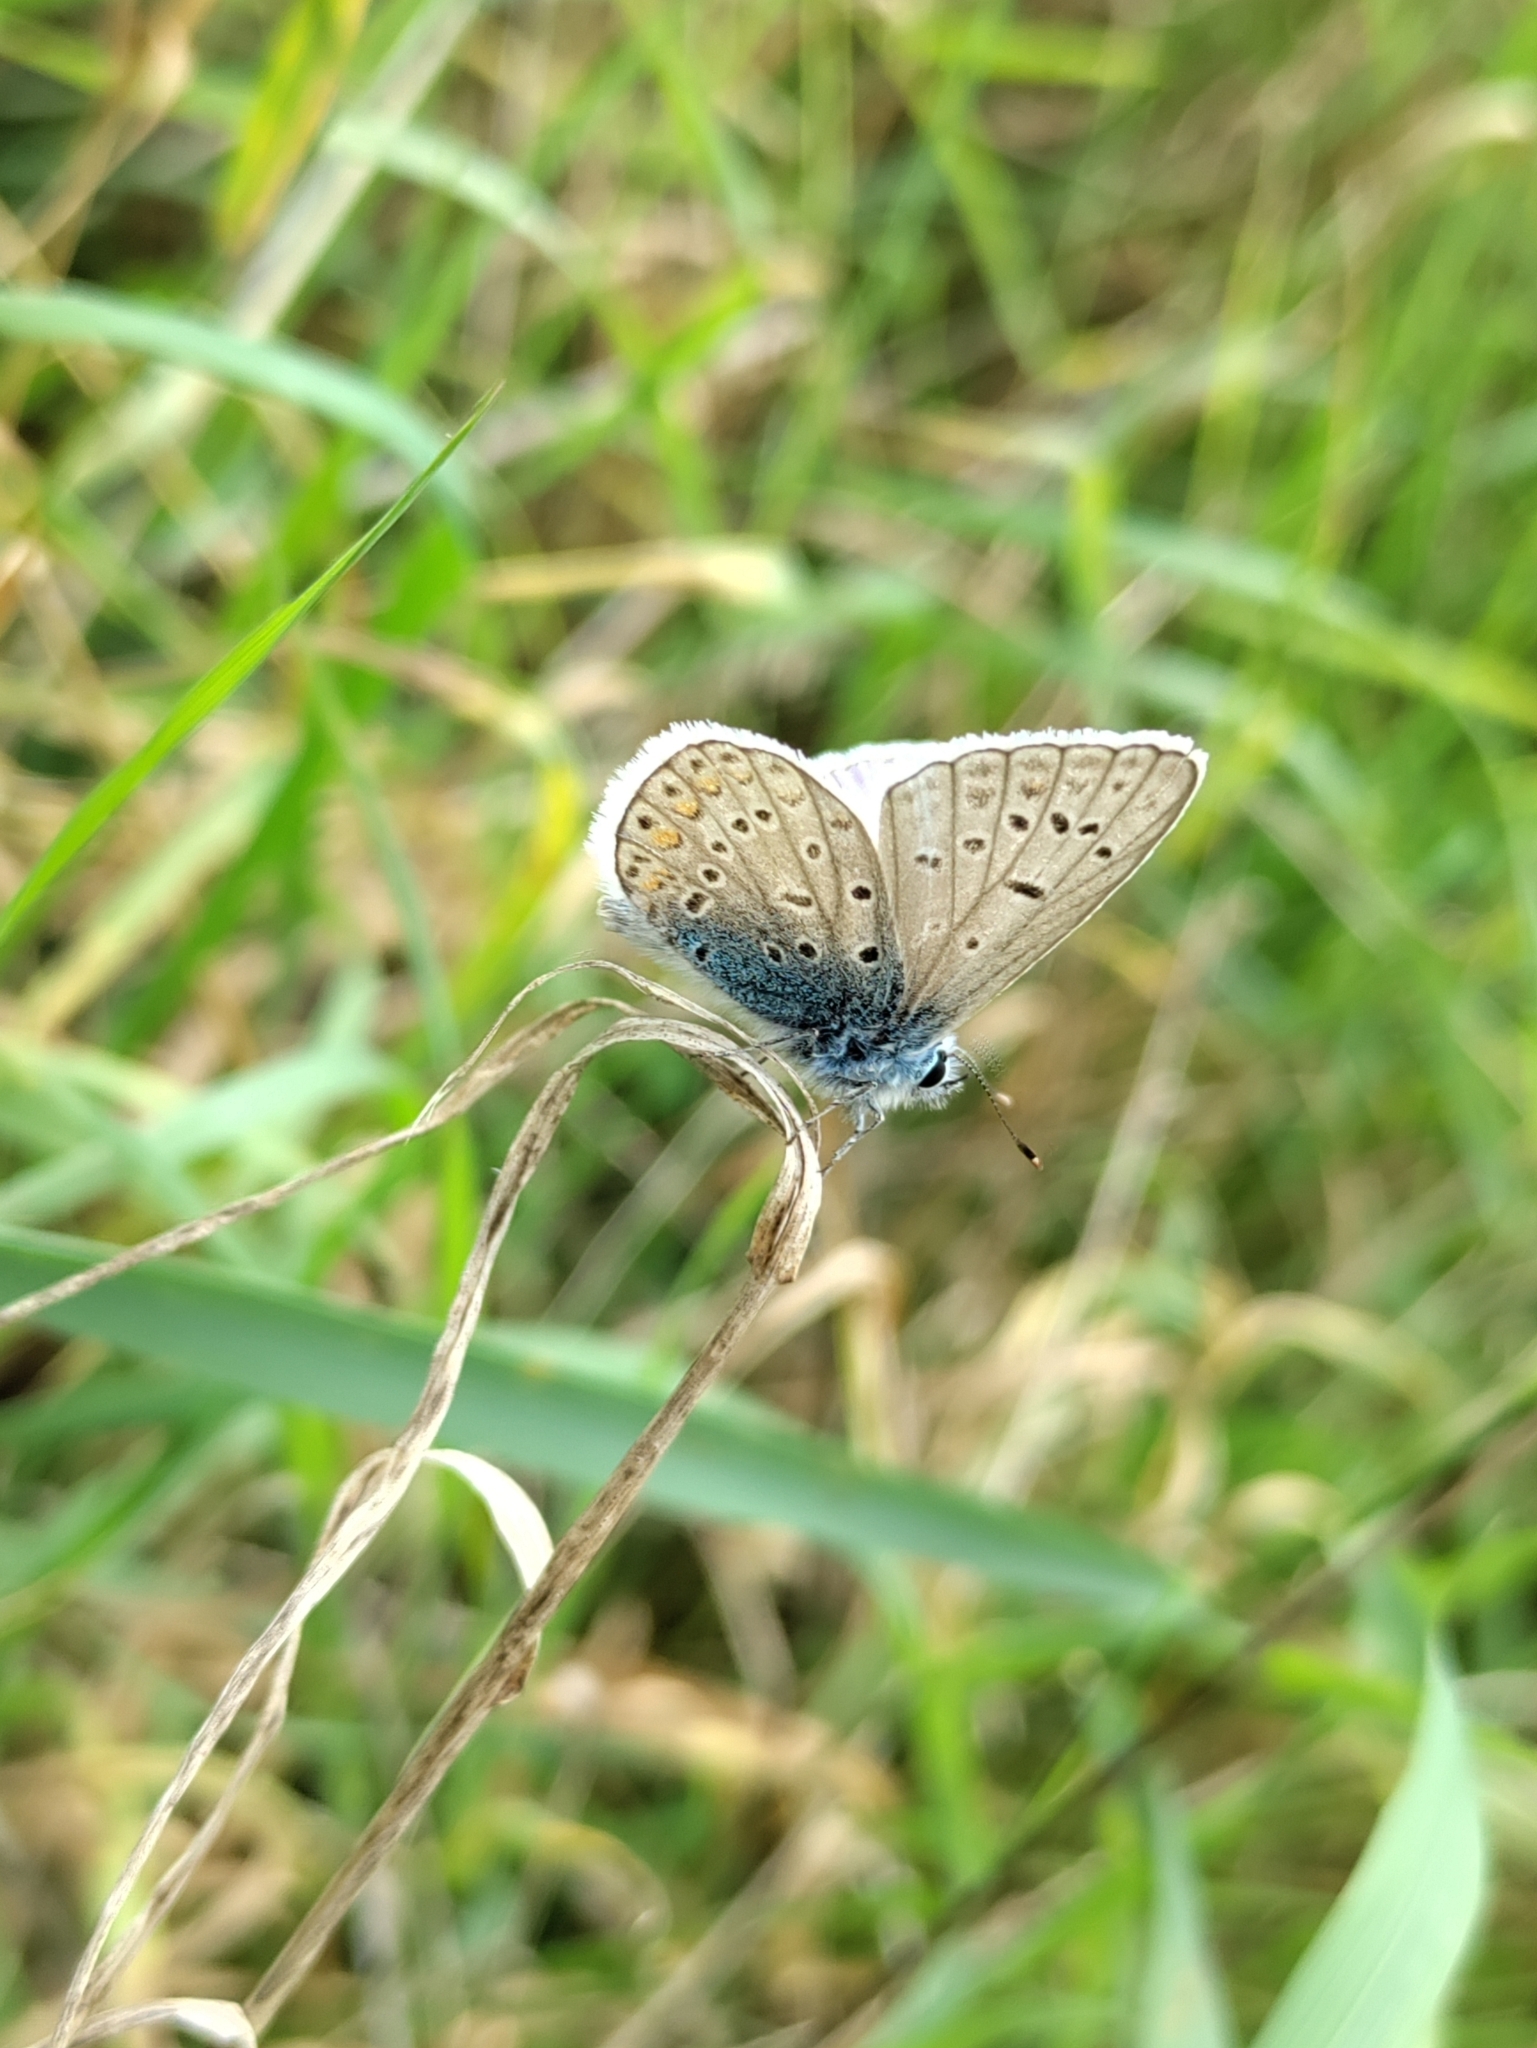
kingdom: Animalia
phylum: Arthropoda
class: Insecta
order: Lepidoptera
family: Lycaenidae
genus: Polyommatus
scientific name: Polyommatus icarus
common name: Common blue
